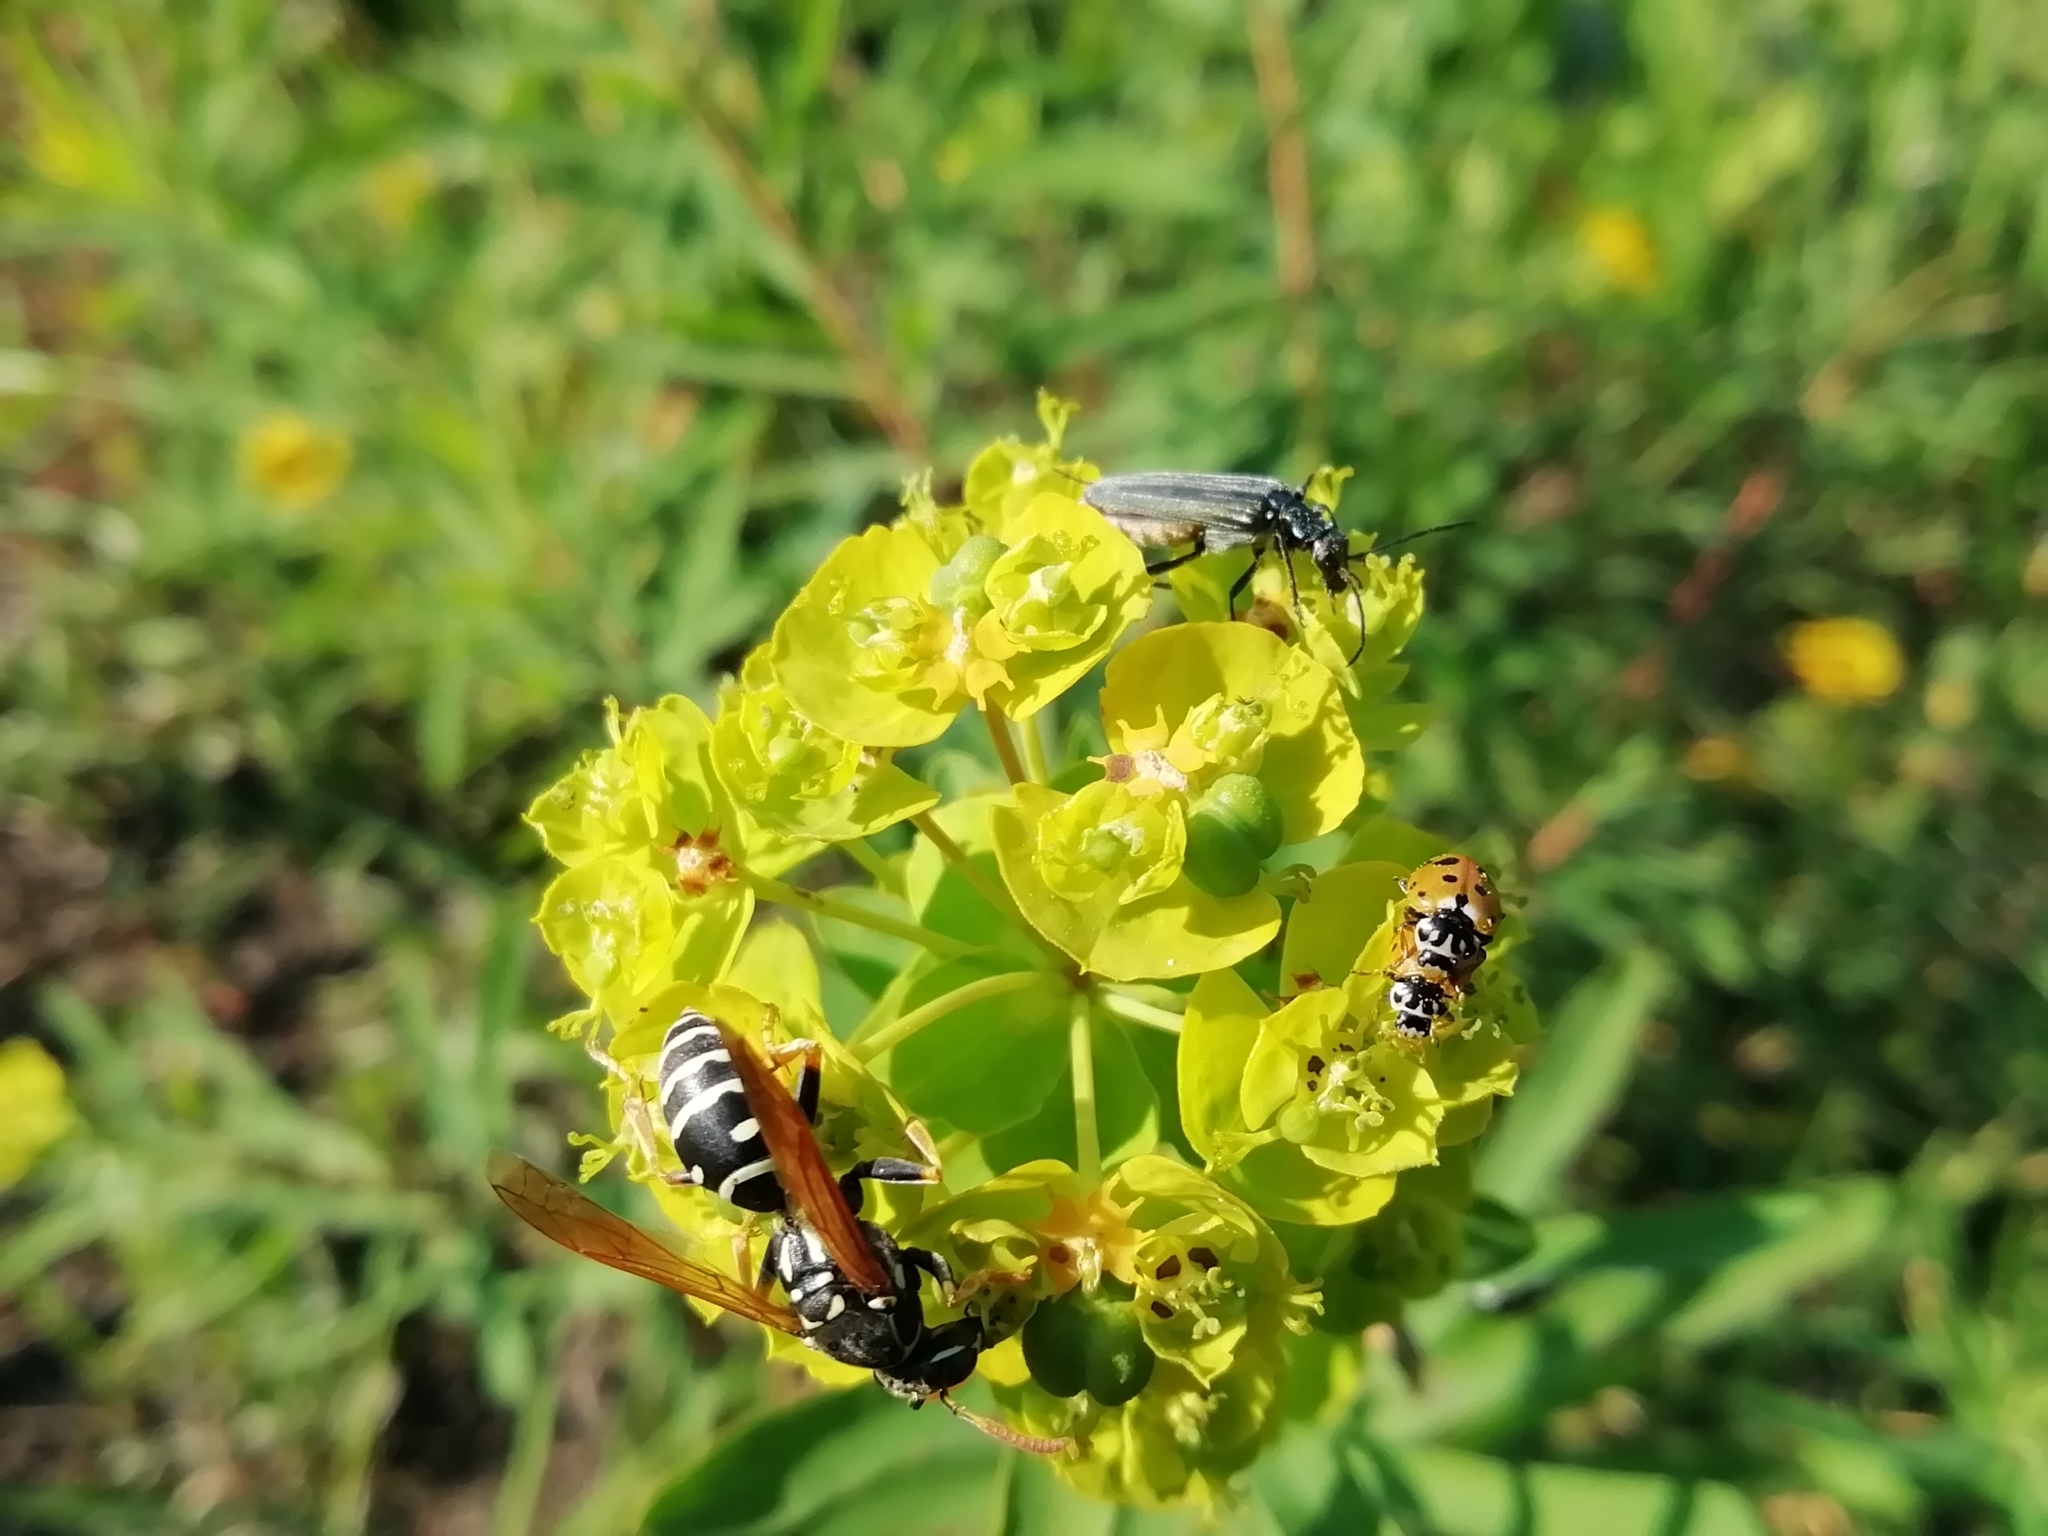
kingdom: Animalia
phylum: Arthropoda
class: Insecta
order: Hymenoptera
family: Eumenidae
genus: Polistes
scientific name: Polistes nimpha
